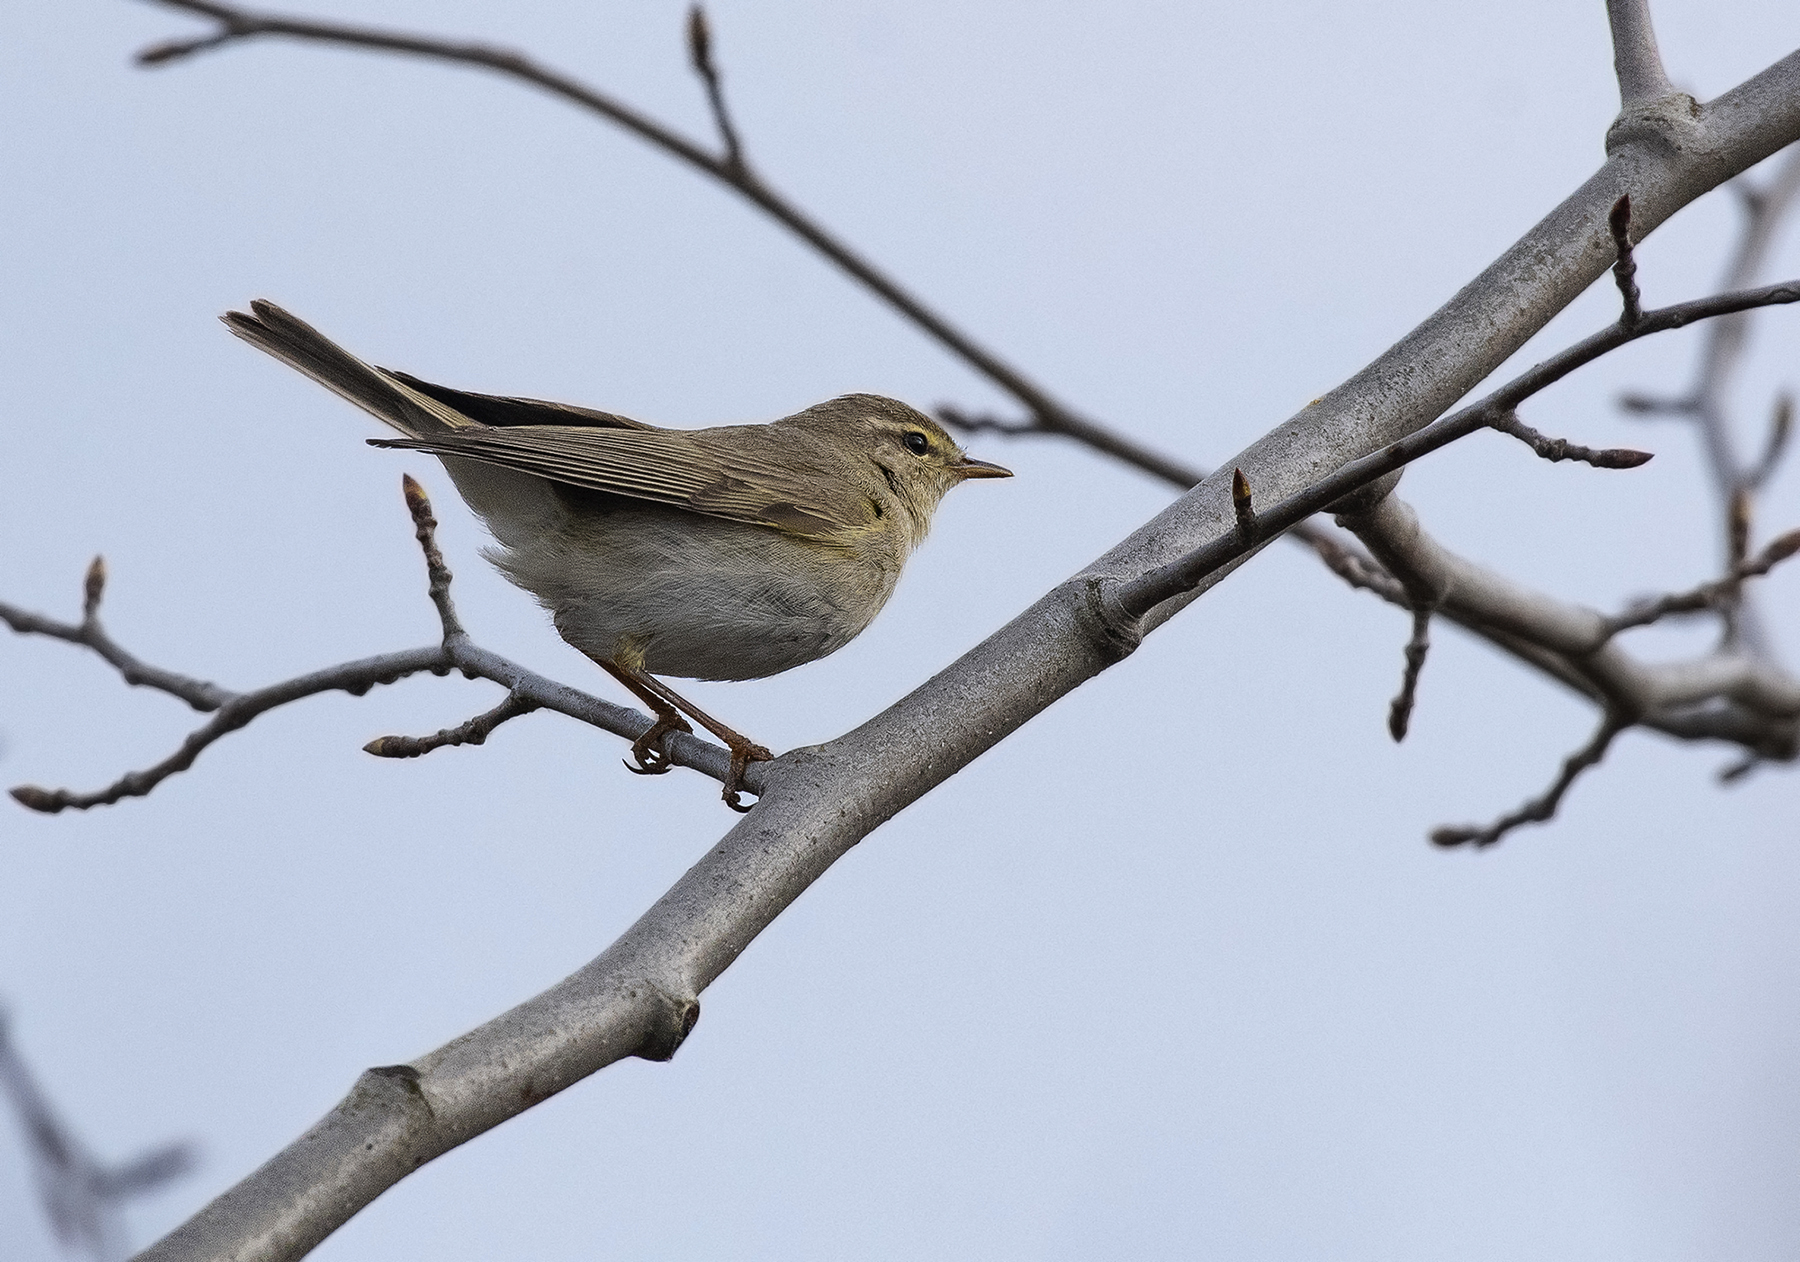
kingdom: Animalia
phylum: Chordata
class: Aves
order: Passeriformes
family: Phylloscopidae
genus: Phylloscopus
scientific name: Phylloscopus trochilus
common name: Willow warbler
